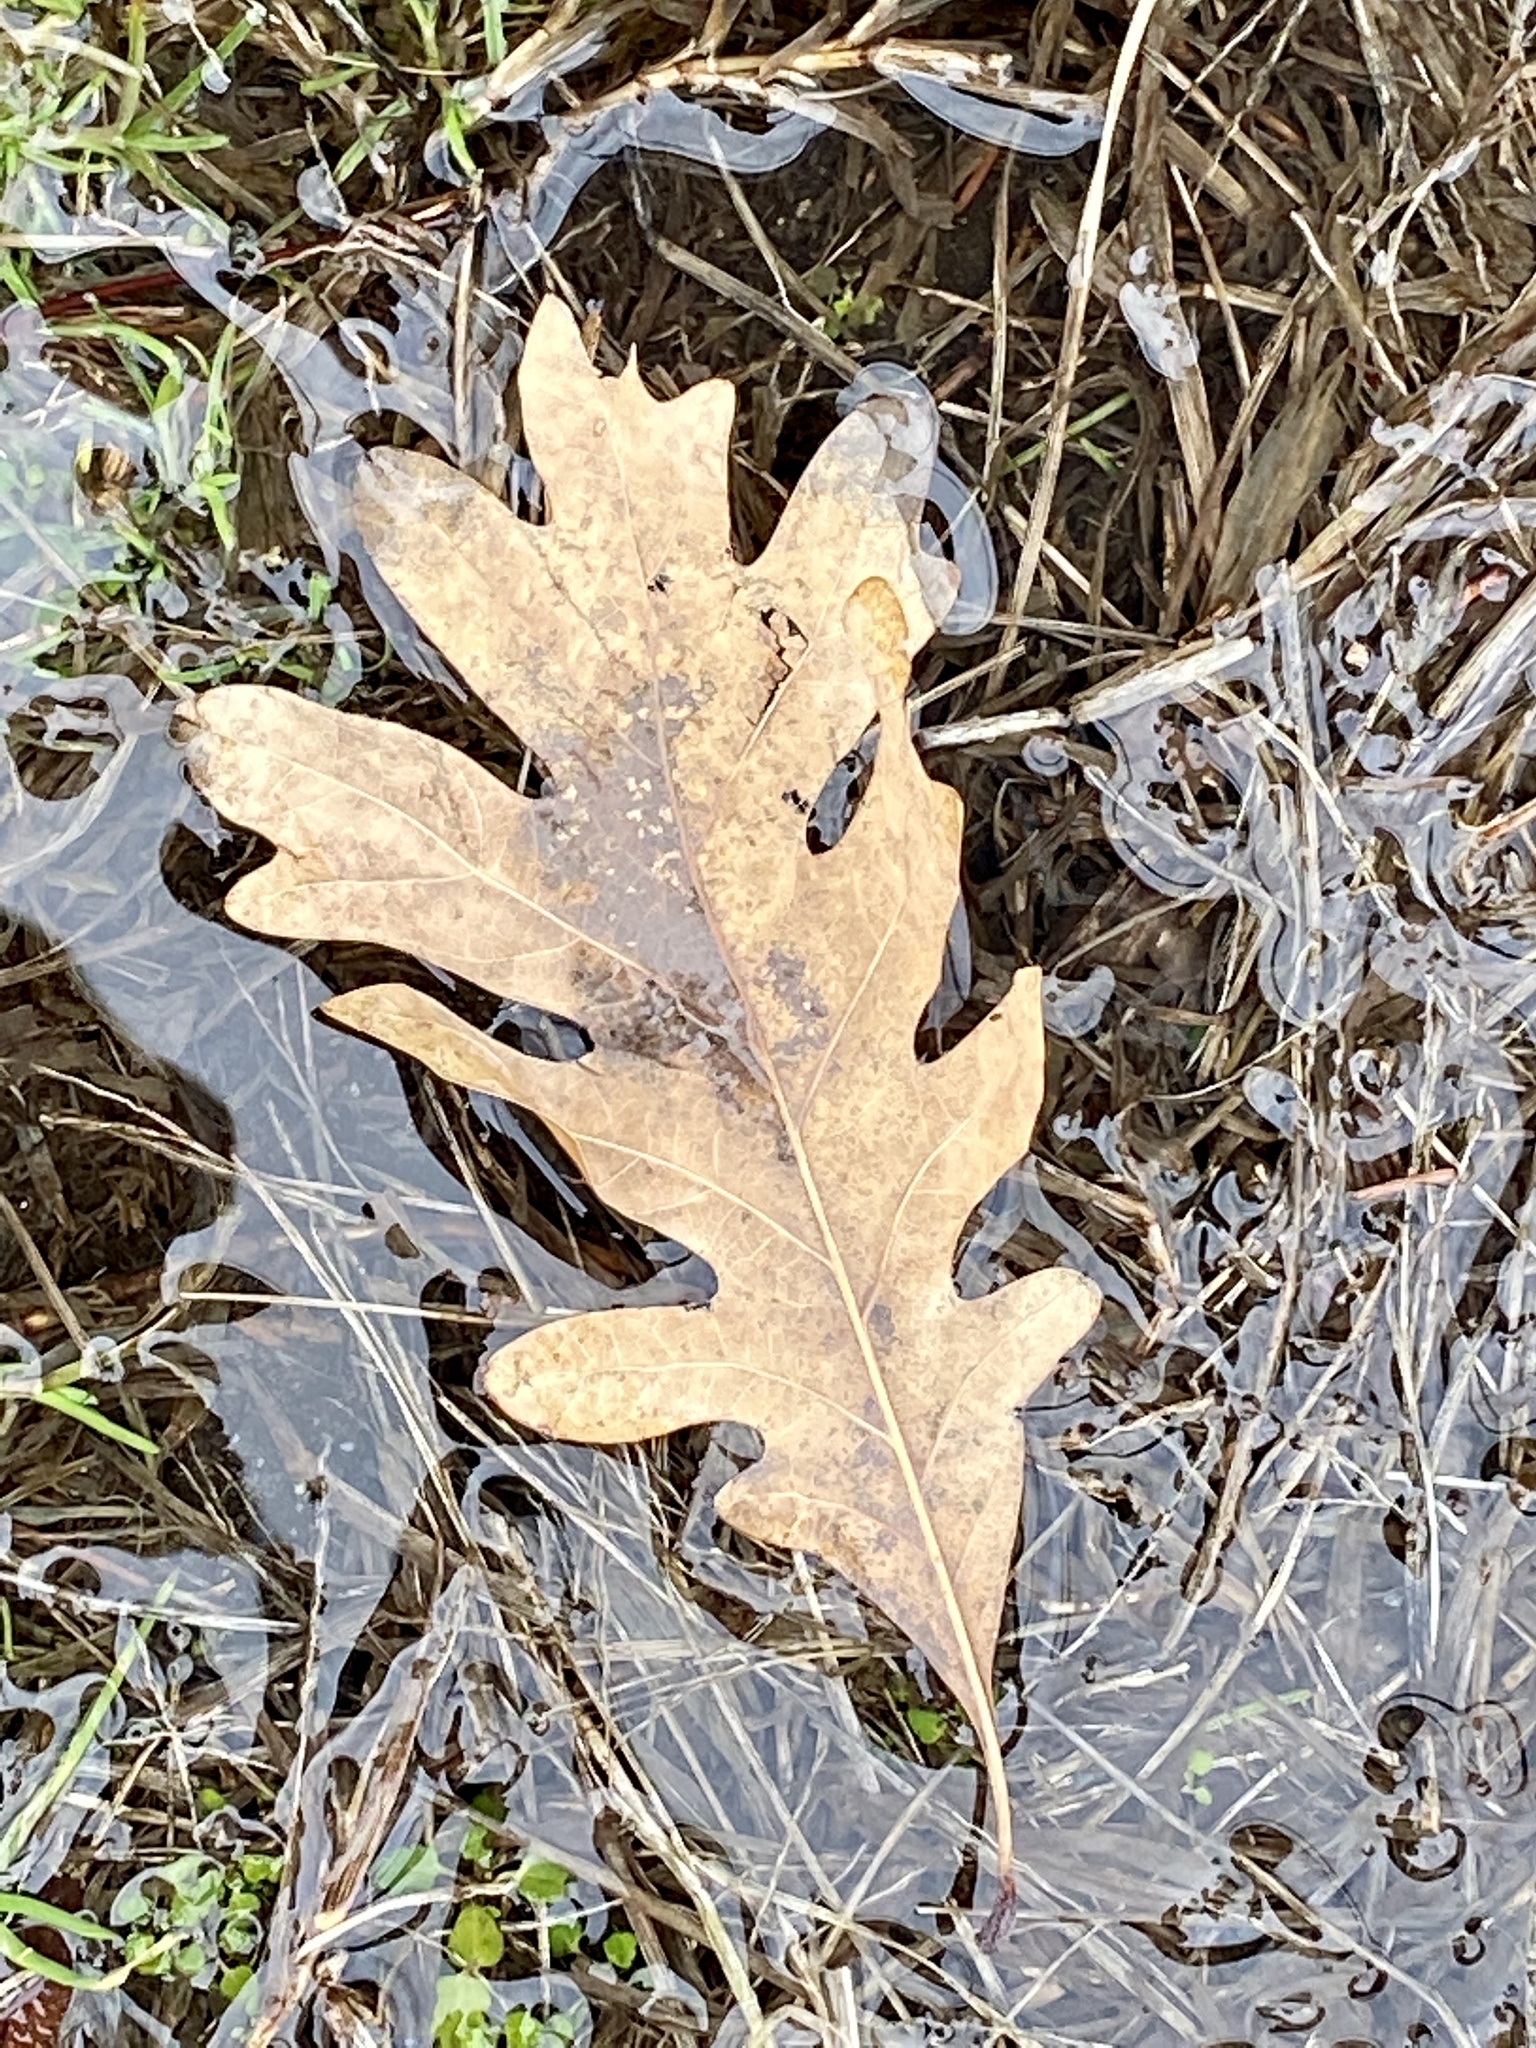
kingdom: Plantae
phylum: Tracheophyta
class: Magnoliopsida
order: Fagales
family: Fagaceae
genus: Quercus
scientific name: Quercus alba
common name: White oak
